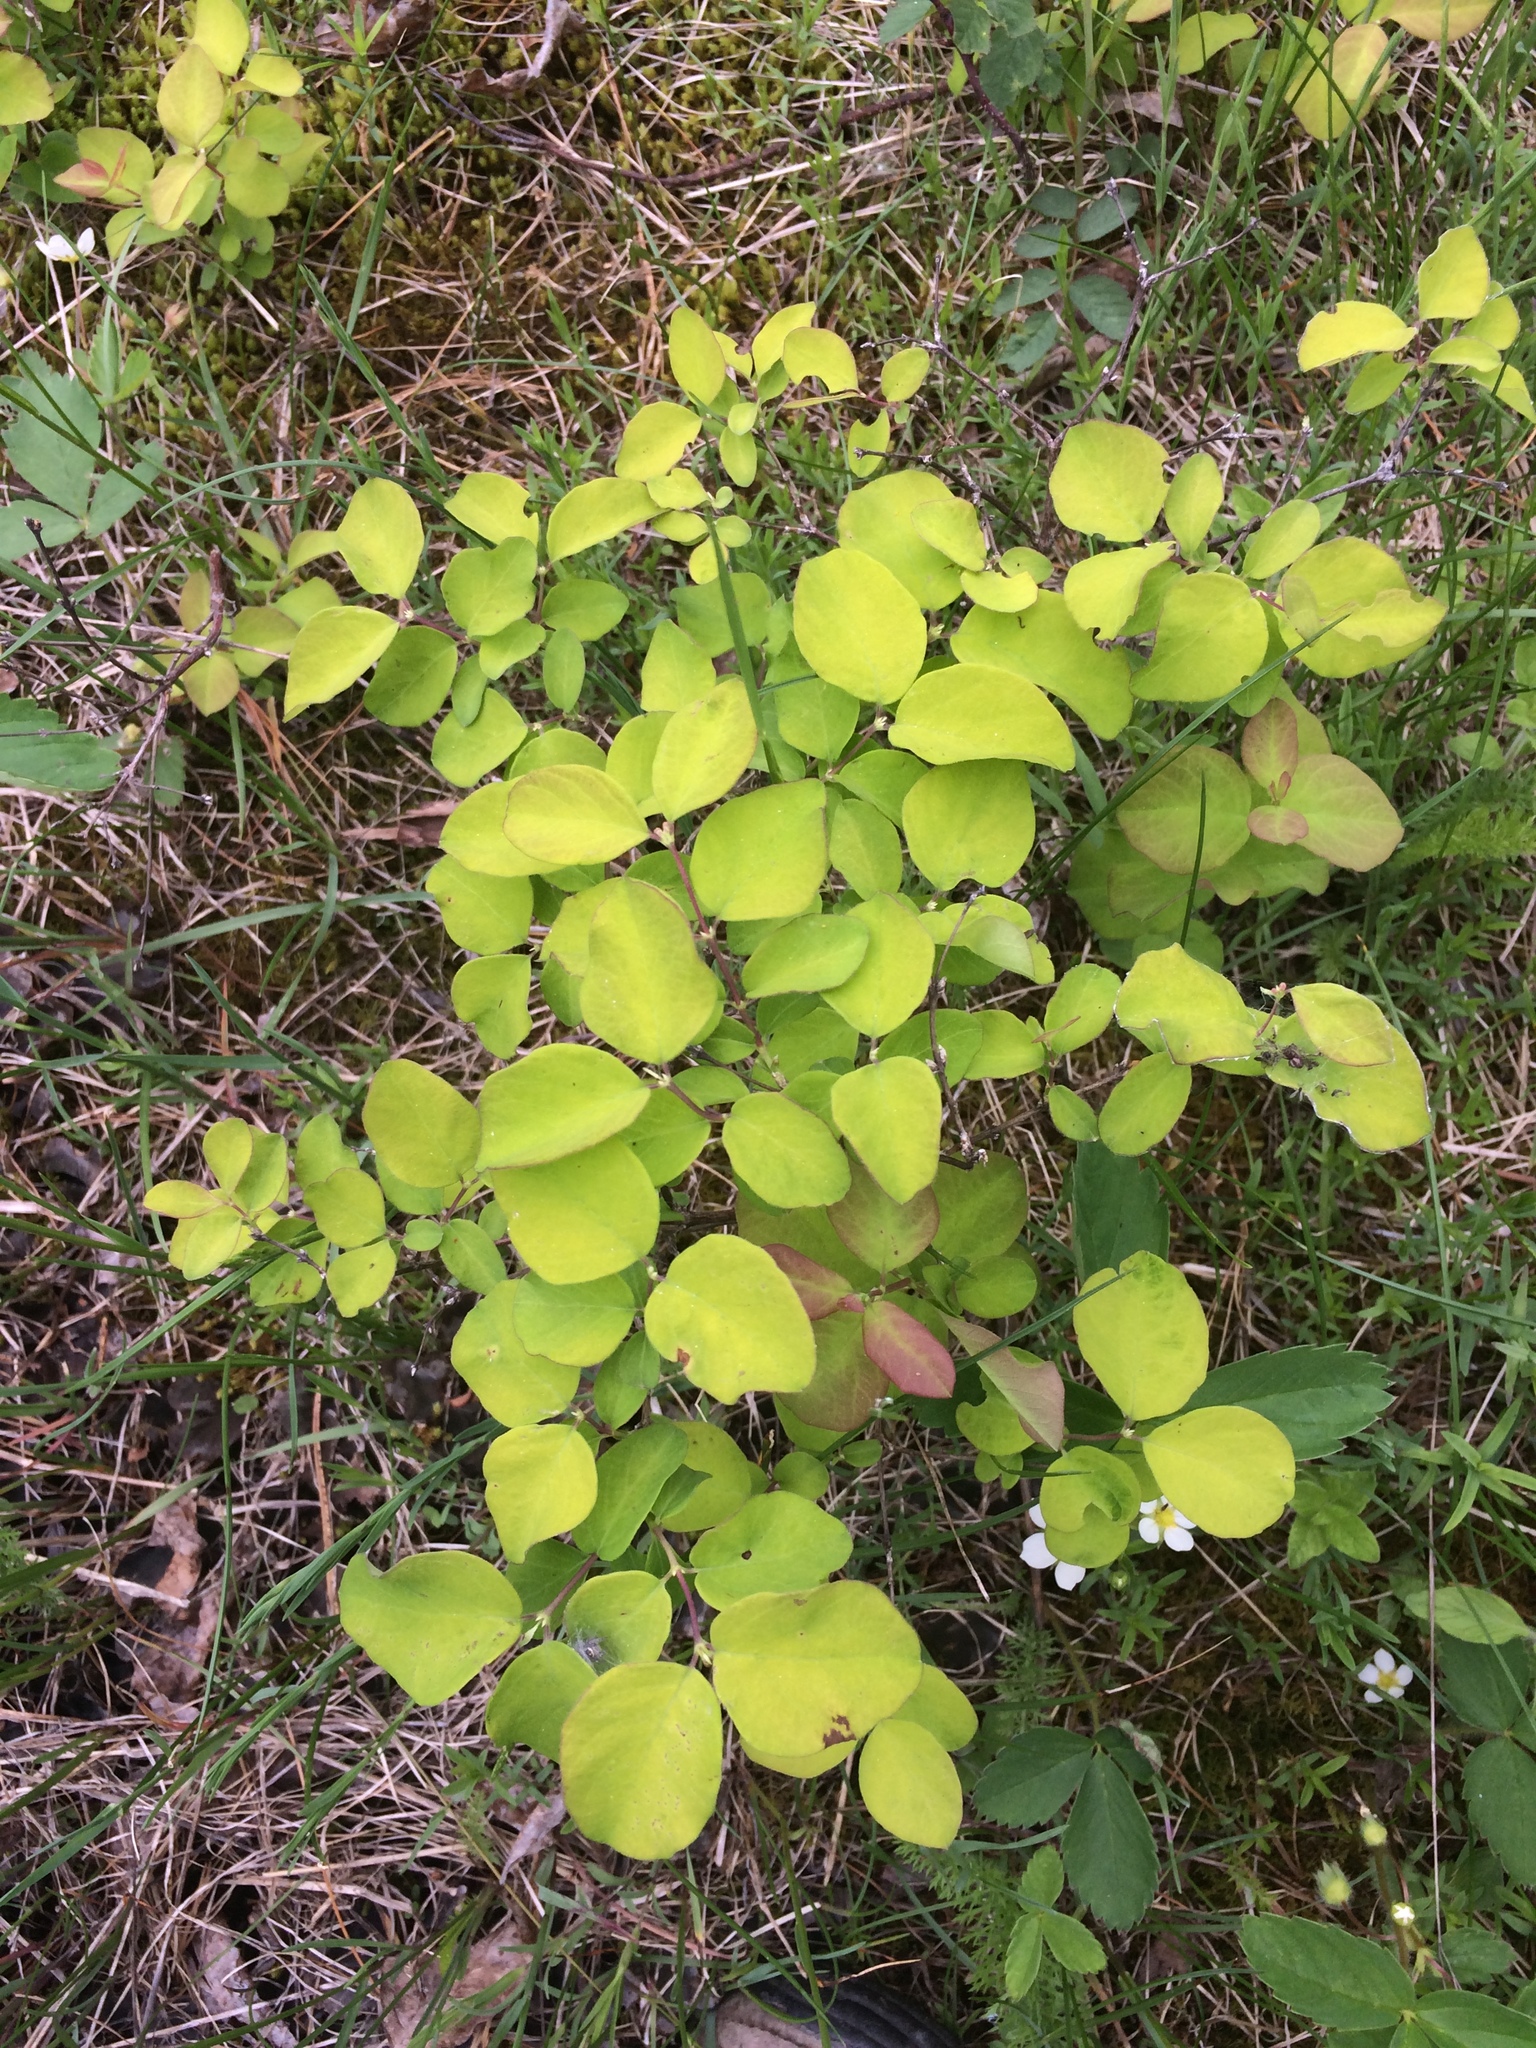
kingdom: Plantae
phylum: Tracheophyta
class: Magnoliopsida
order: Dipsacales
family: Caprifoliaceae
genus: Symphoricarpos
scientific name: Symphoricarpos albus
